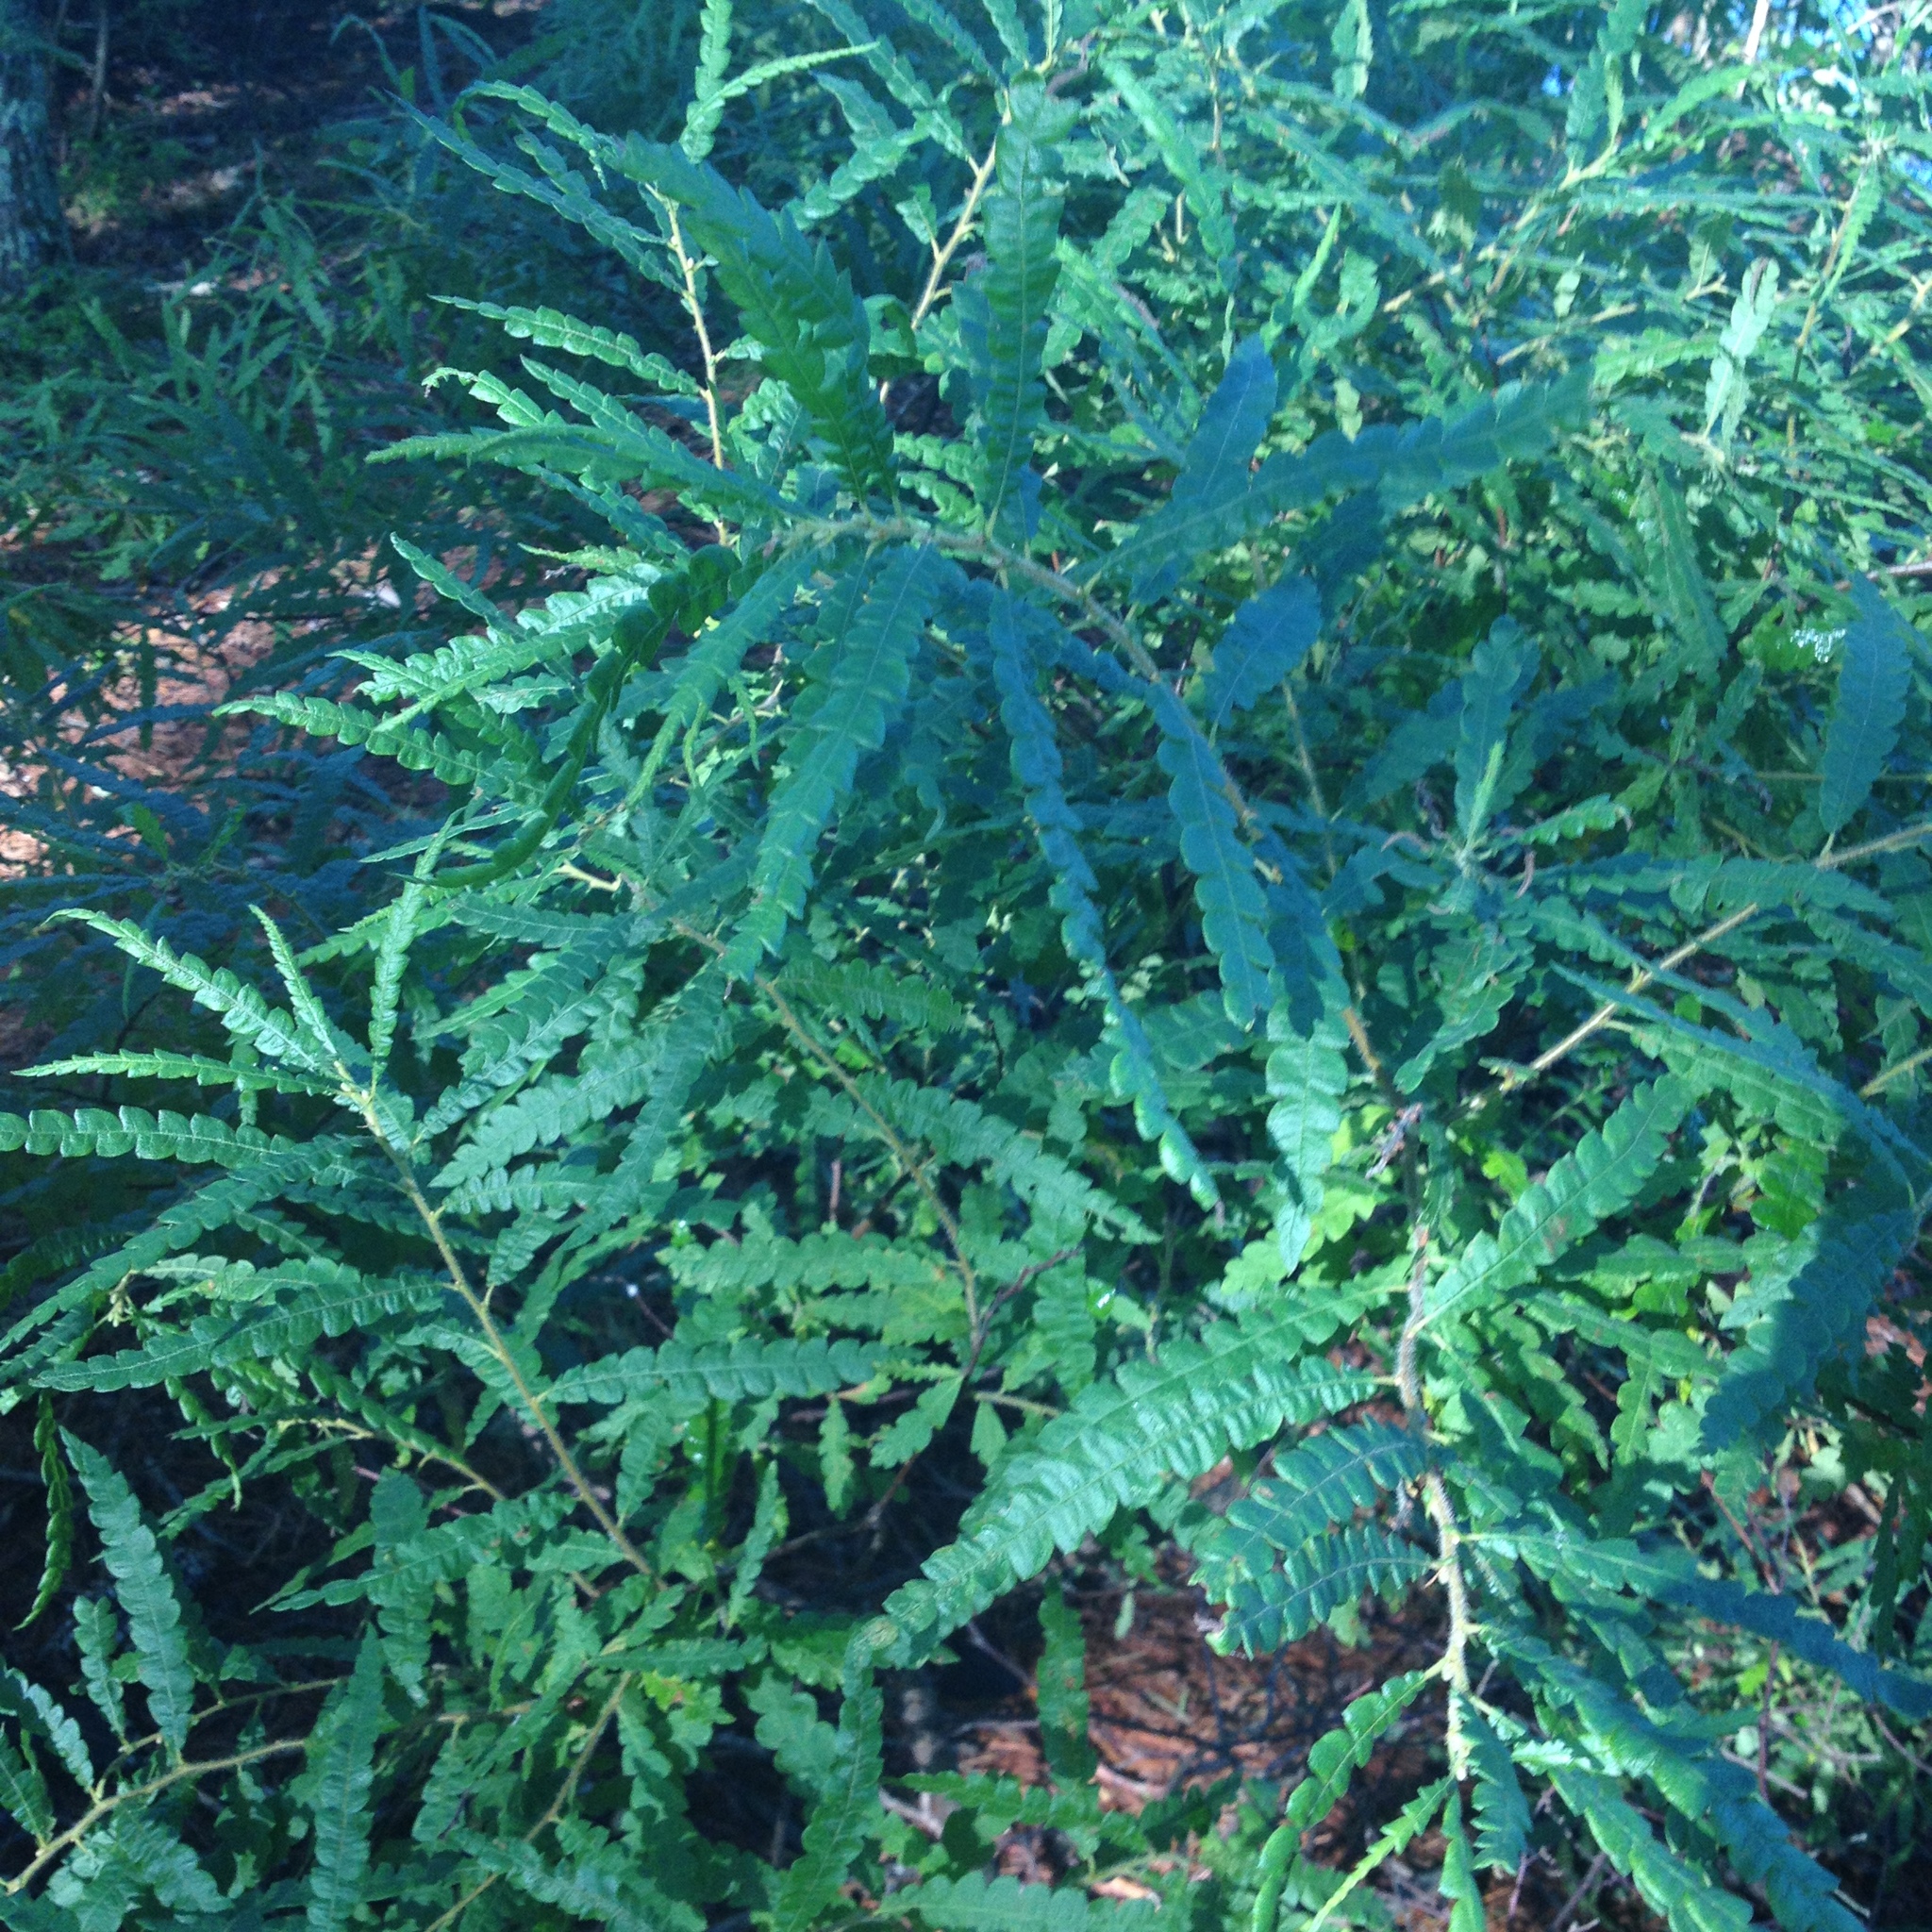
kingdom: Plantae
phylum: Tracheophyta
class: Magnoliopsida
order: Fagales
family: Myricaceae
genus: Comptonia
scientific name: Comptonia peregrina
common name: Sweet-fern
